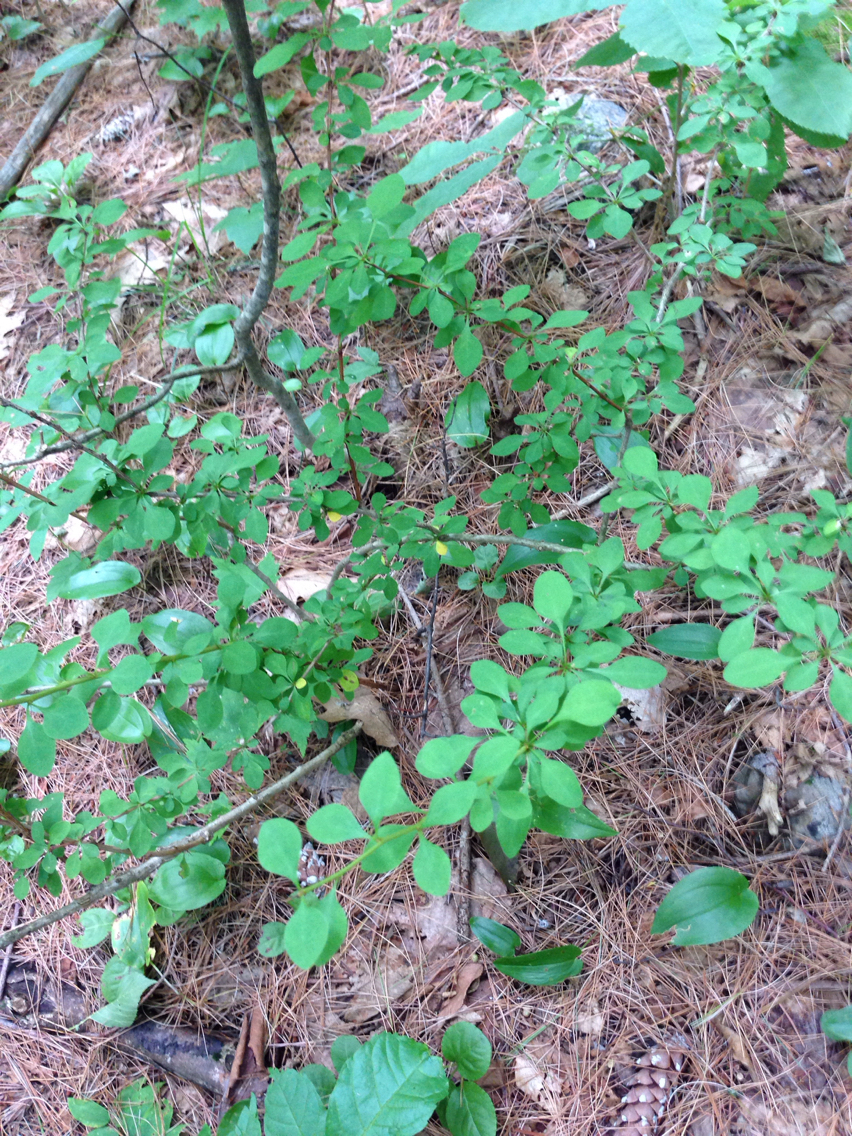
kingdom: Plantae
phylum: Tracheophyta
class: Magnoliopsida
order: Ranunculales
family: Berberidaceae
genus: Berberis
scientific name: Berberis thunbergii
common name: Japanese barberry
